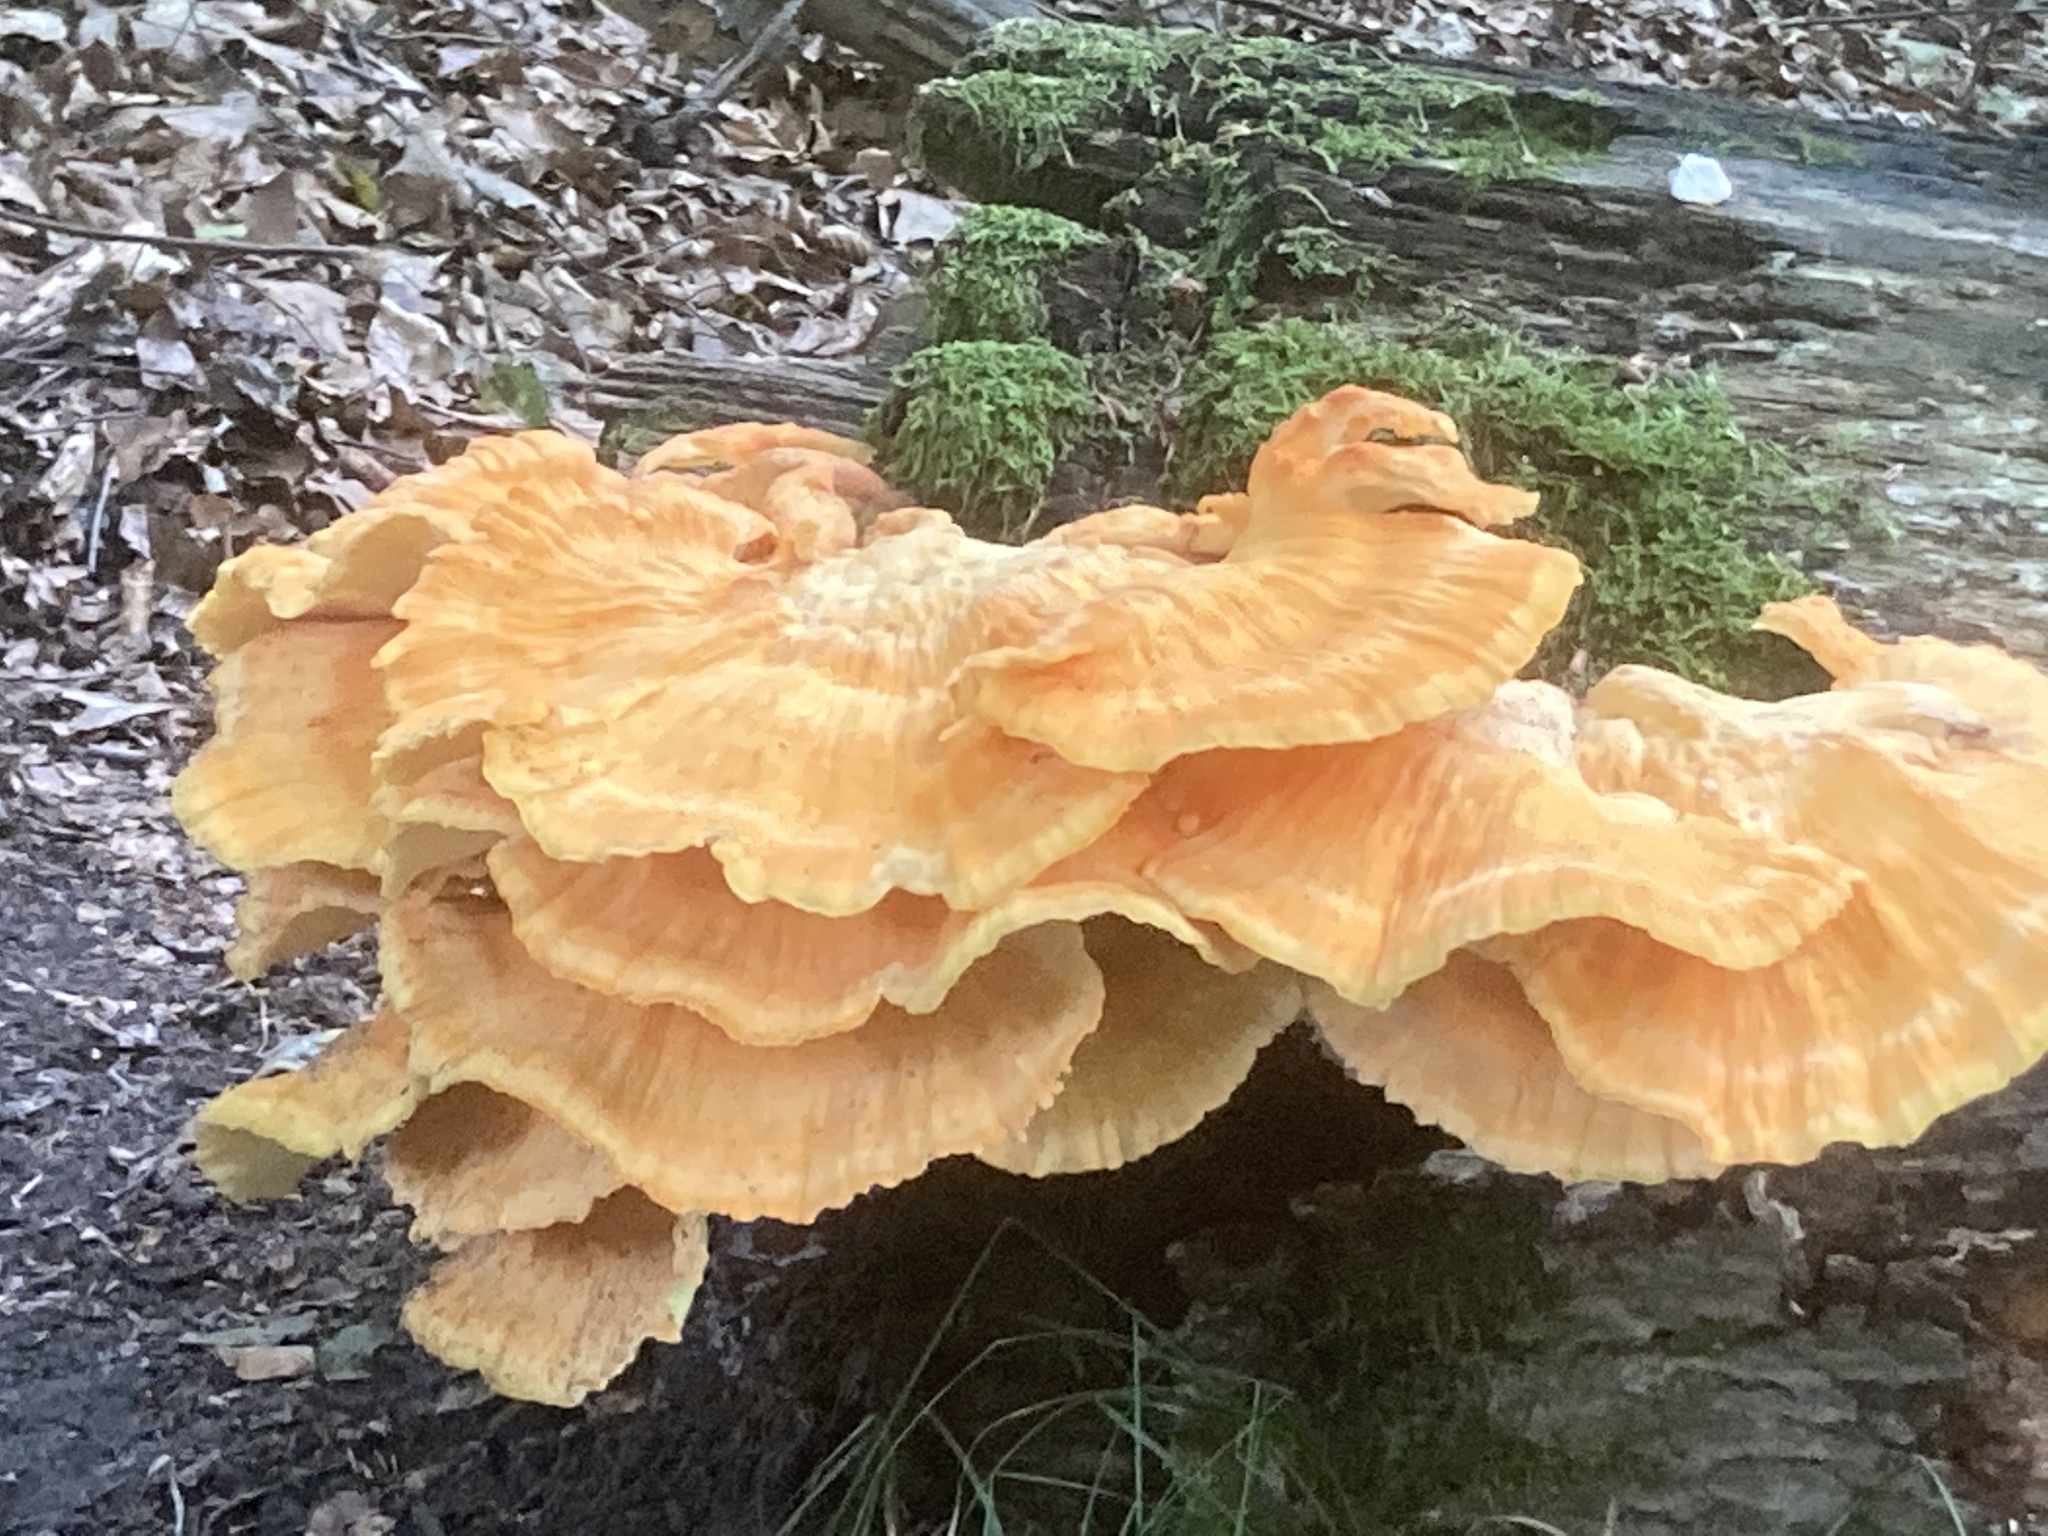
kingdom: Fungi
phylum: Basidiomycota
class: Agaricomycetes
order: Polyporales
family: Laetiporaceae
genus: Laetiporus
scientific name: Laetiporus sulphureus
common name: Chicken of the woods
